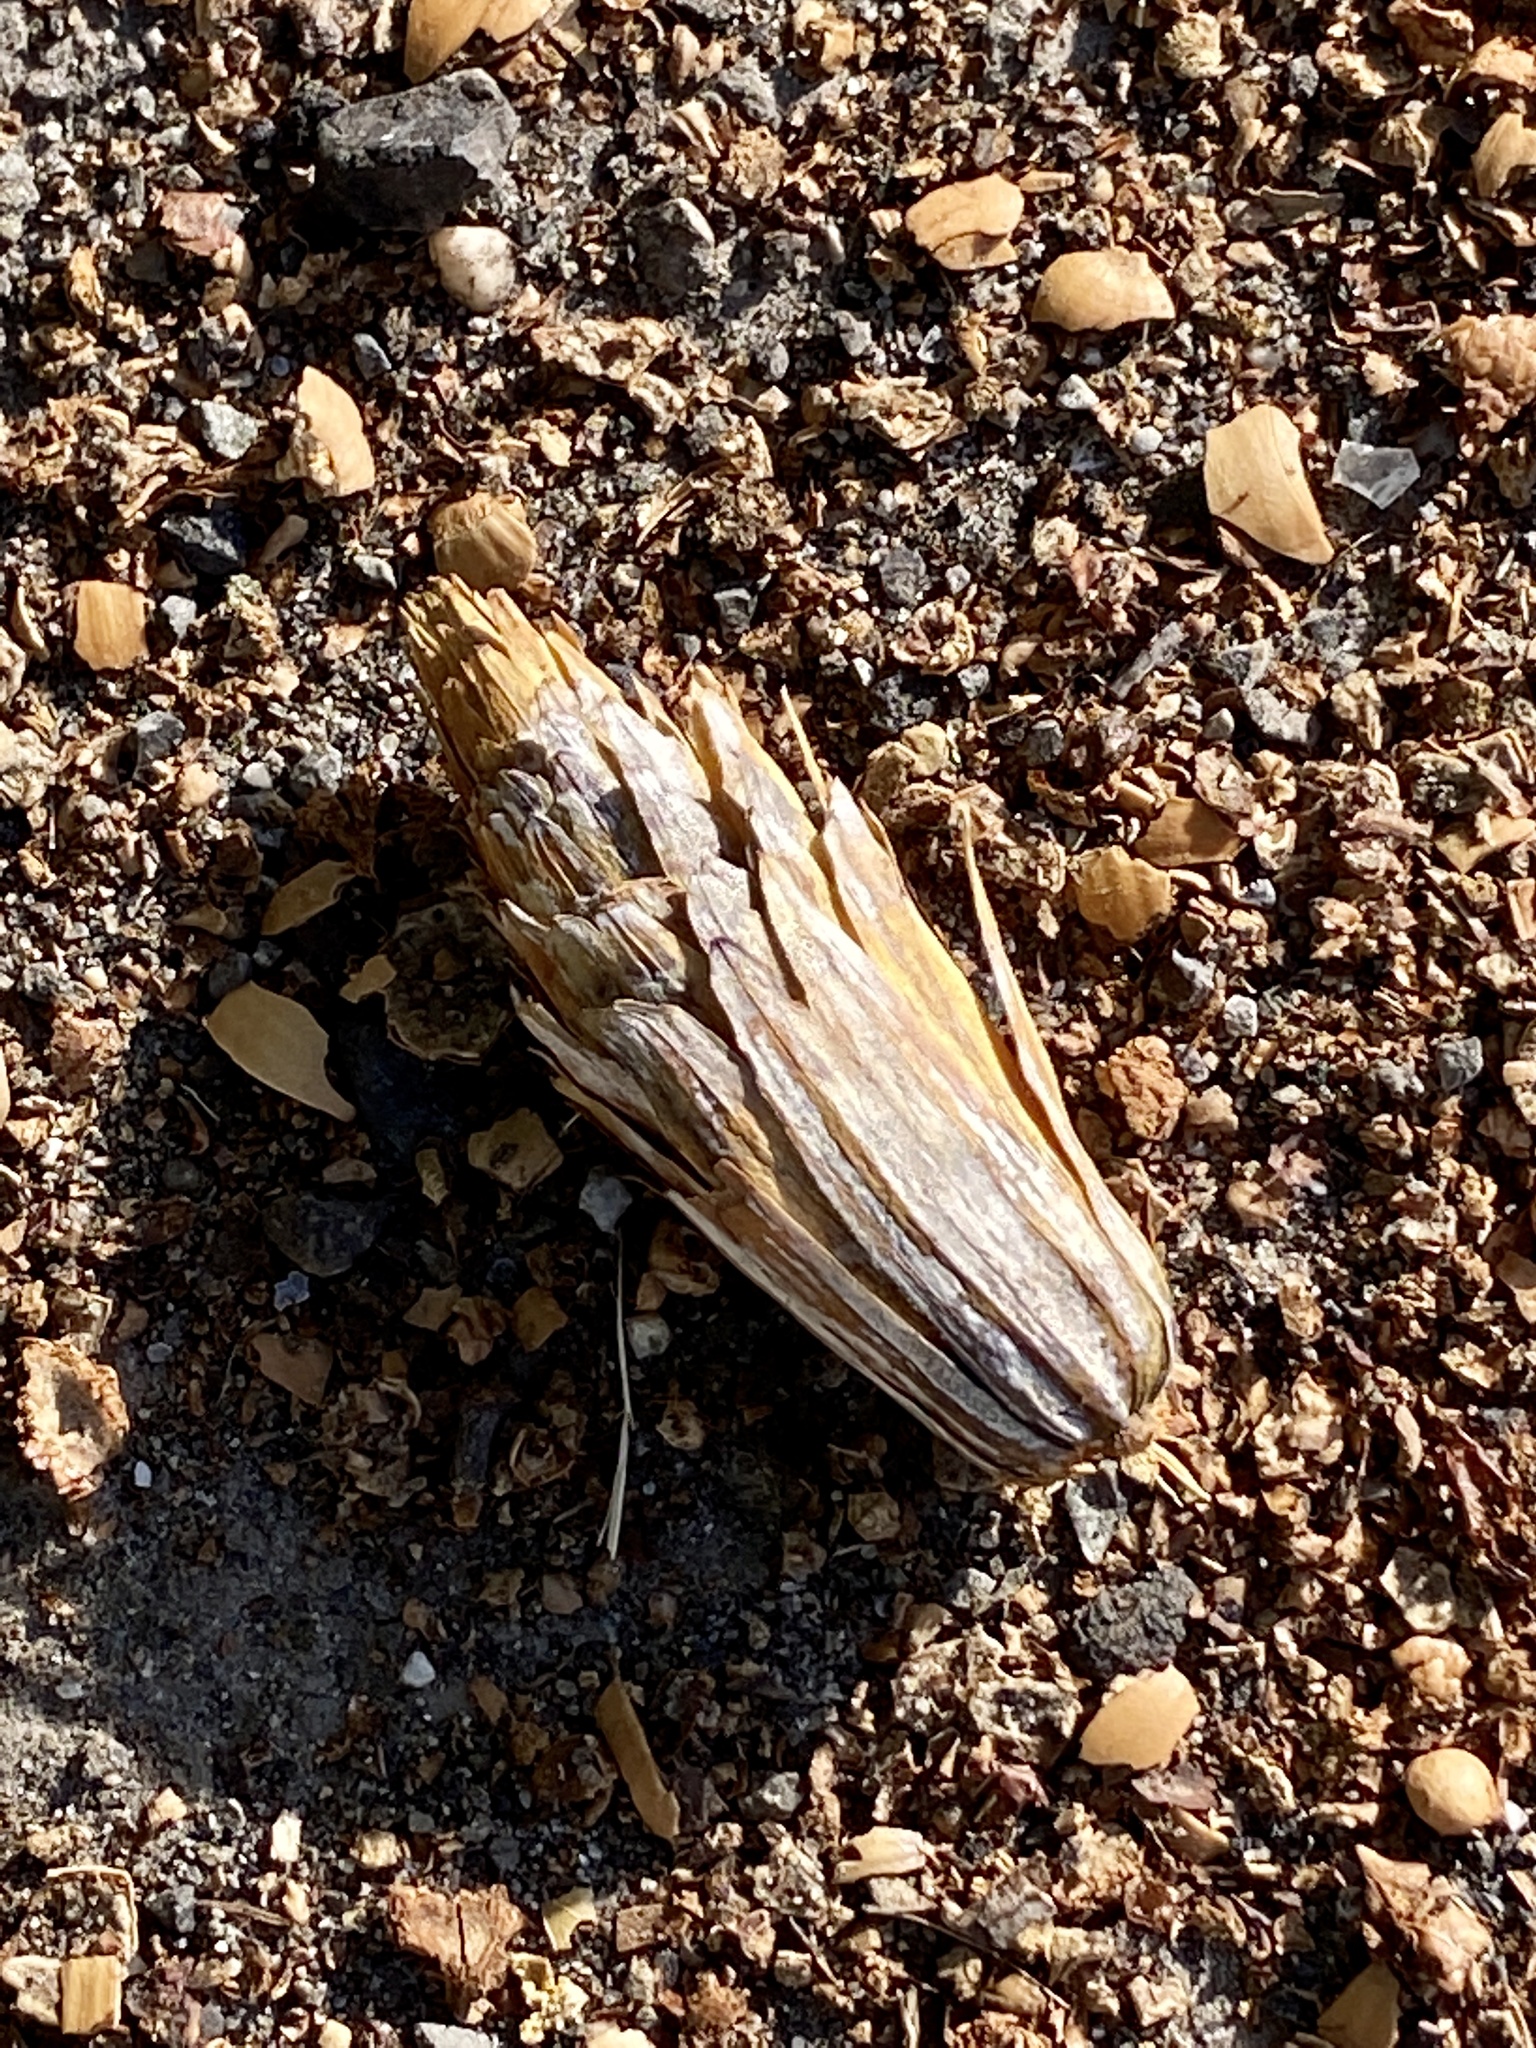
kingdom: Plantae
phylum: Tracheophyta
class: Magnoliopsida
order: Magnoliales
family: Magnoliaceae
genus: Liriodendron
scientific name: Liriodendron tulipifera
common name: Tulip tree
